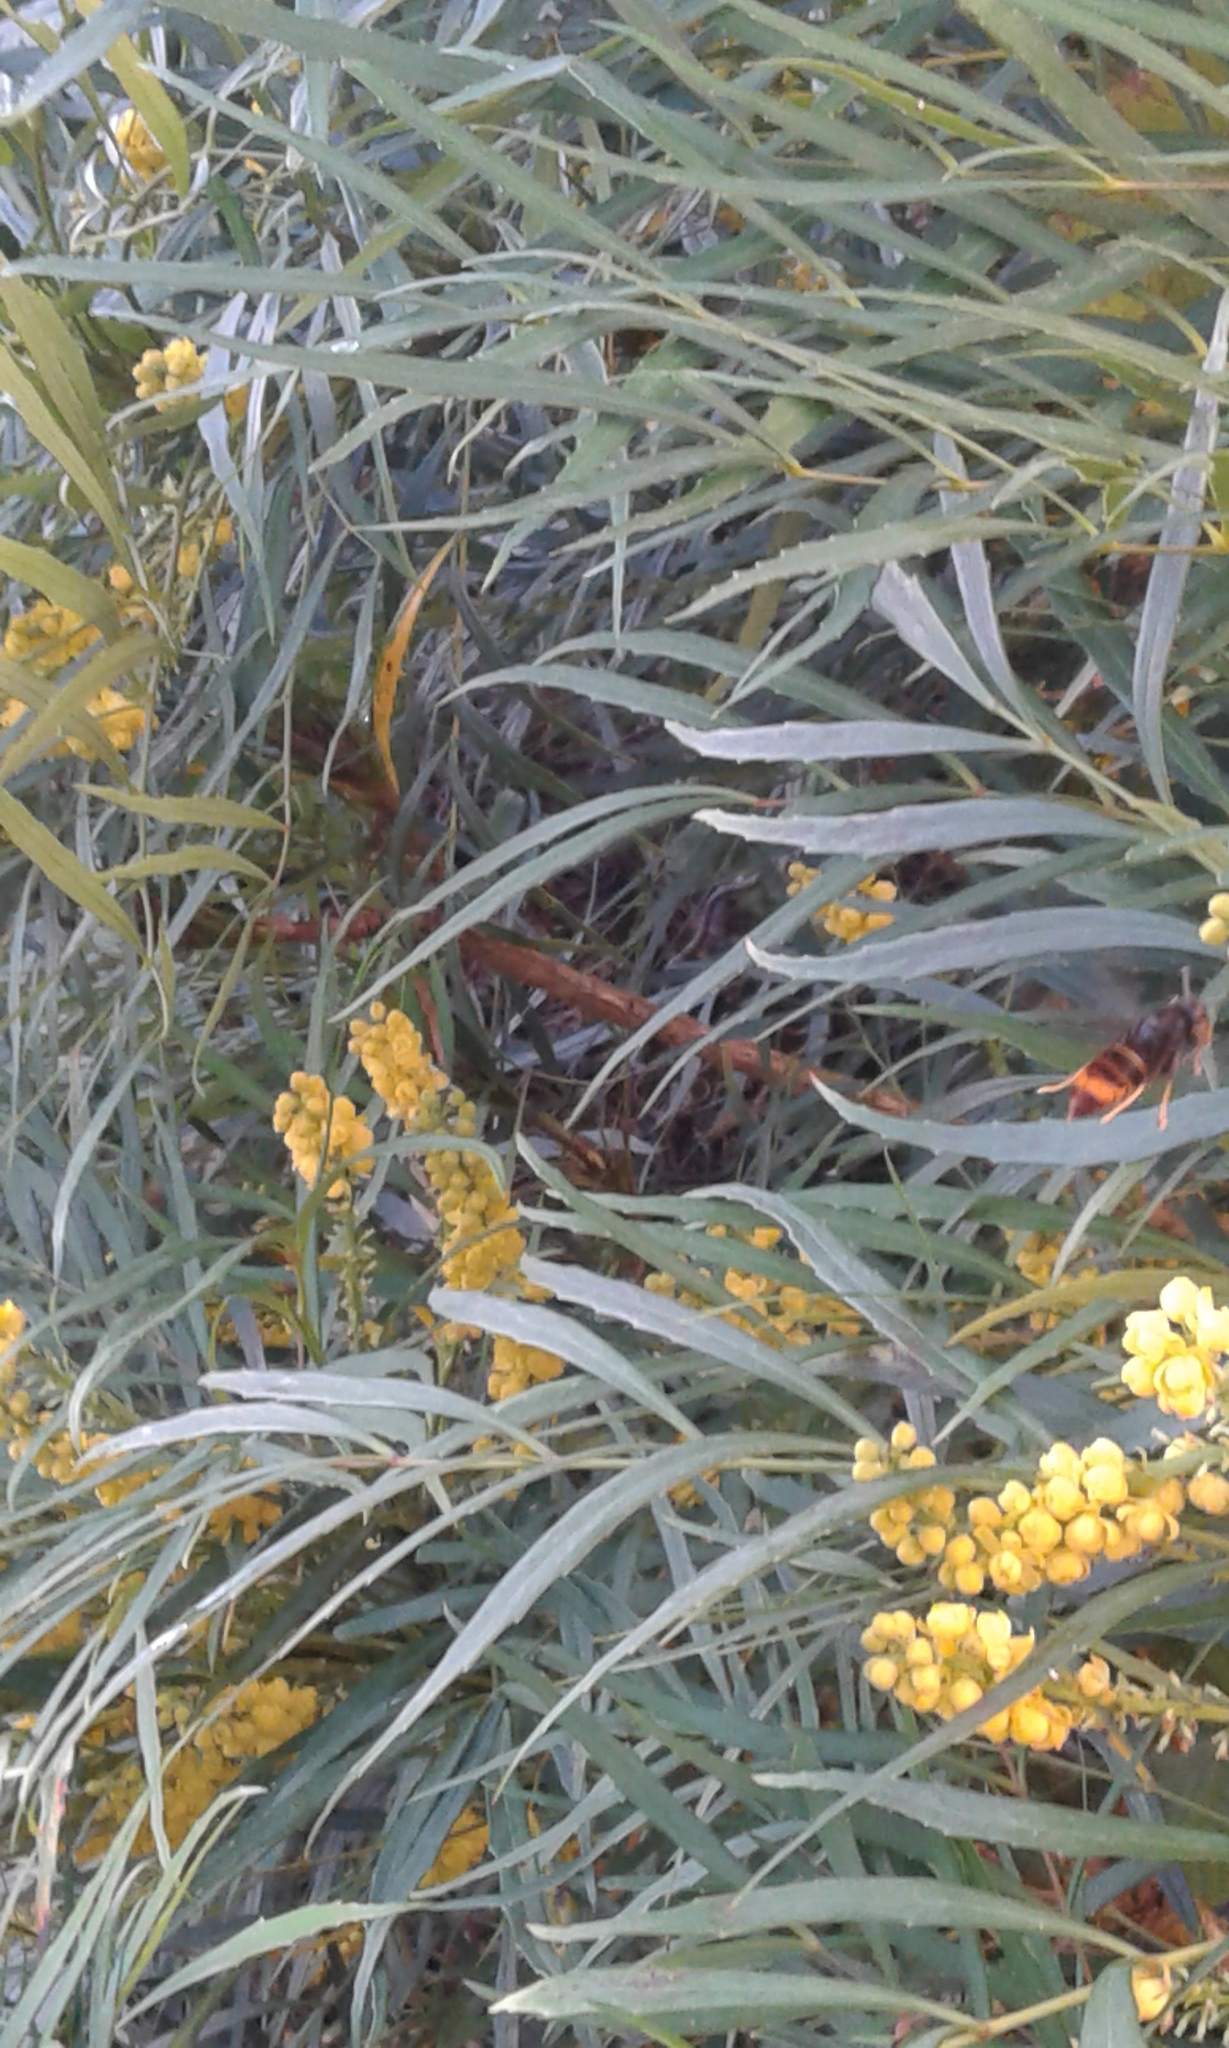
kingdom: Animalia
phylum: Arthropoda
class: Insecta
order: Hymenoptera
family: Vespidae
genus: Vespa
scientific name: Vespa velutina
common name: Asian hornet
